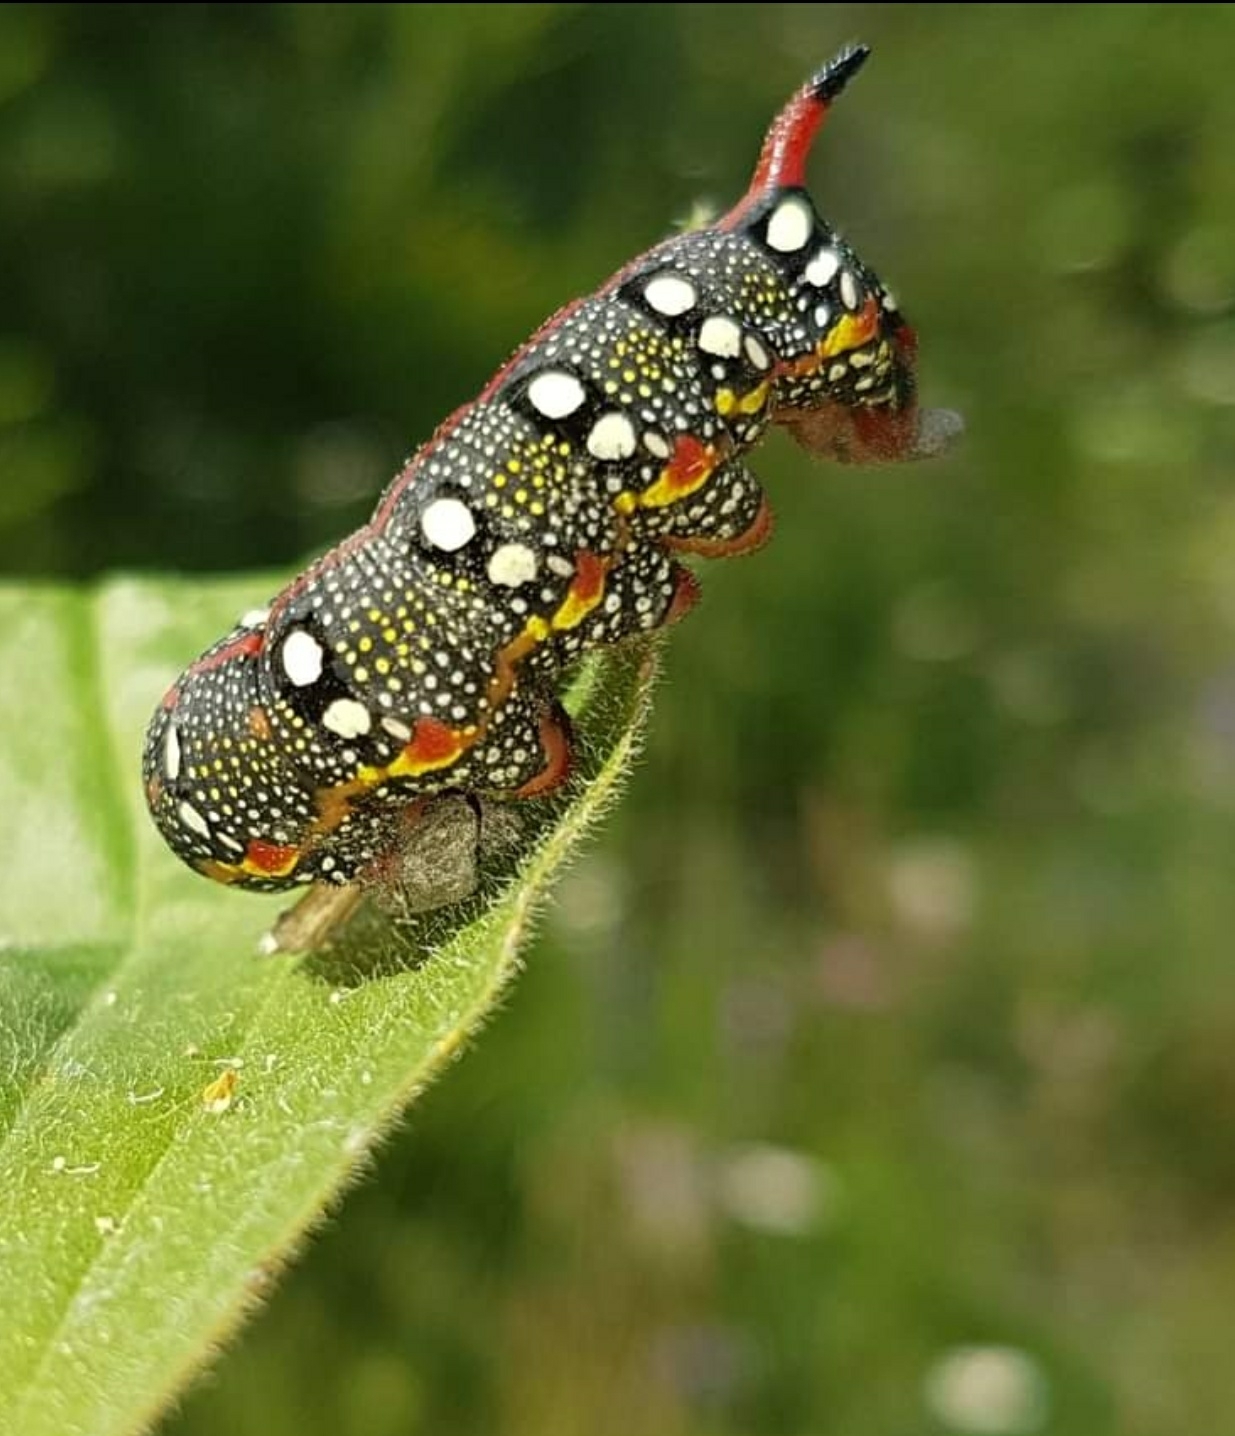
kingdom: Animalia
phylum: Arthropoda
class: Insecta
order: Lepidoptera
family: Sphingidae
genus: Hyles
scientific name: Hyles euphorbiae
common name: Spurge hawk-moth
